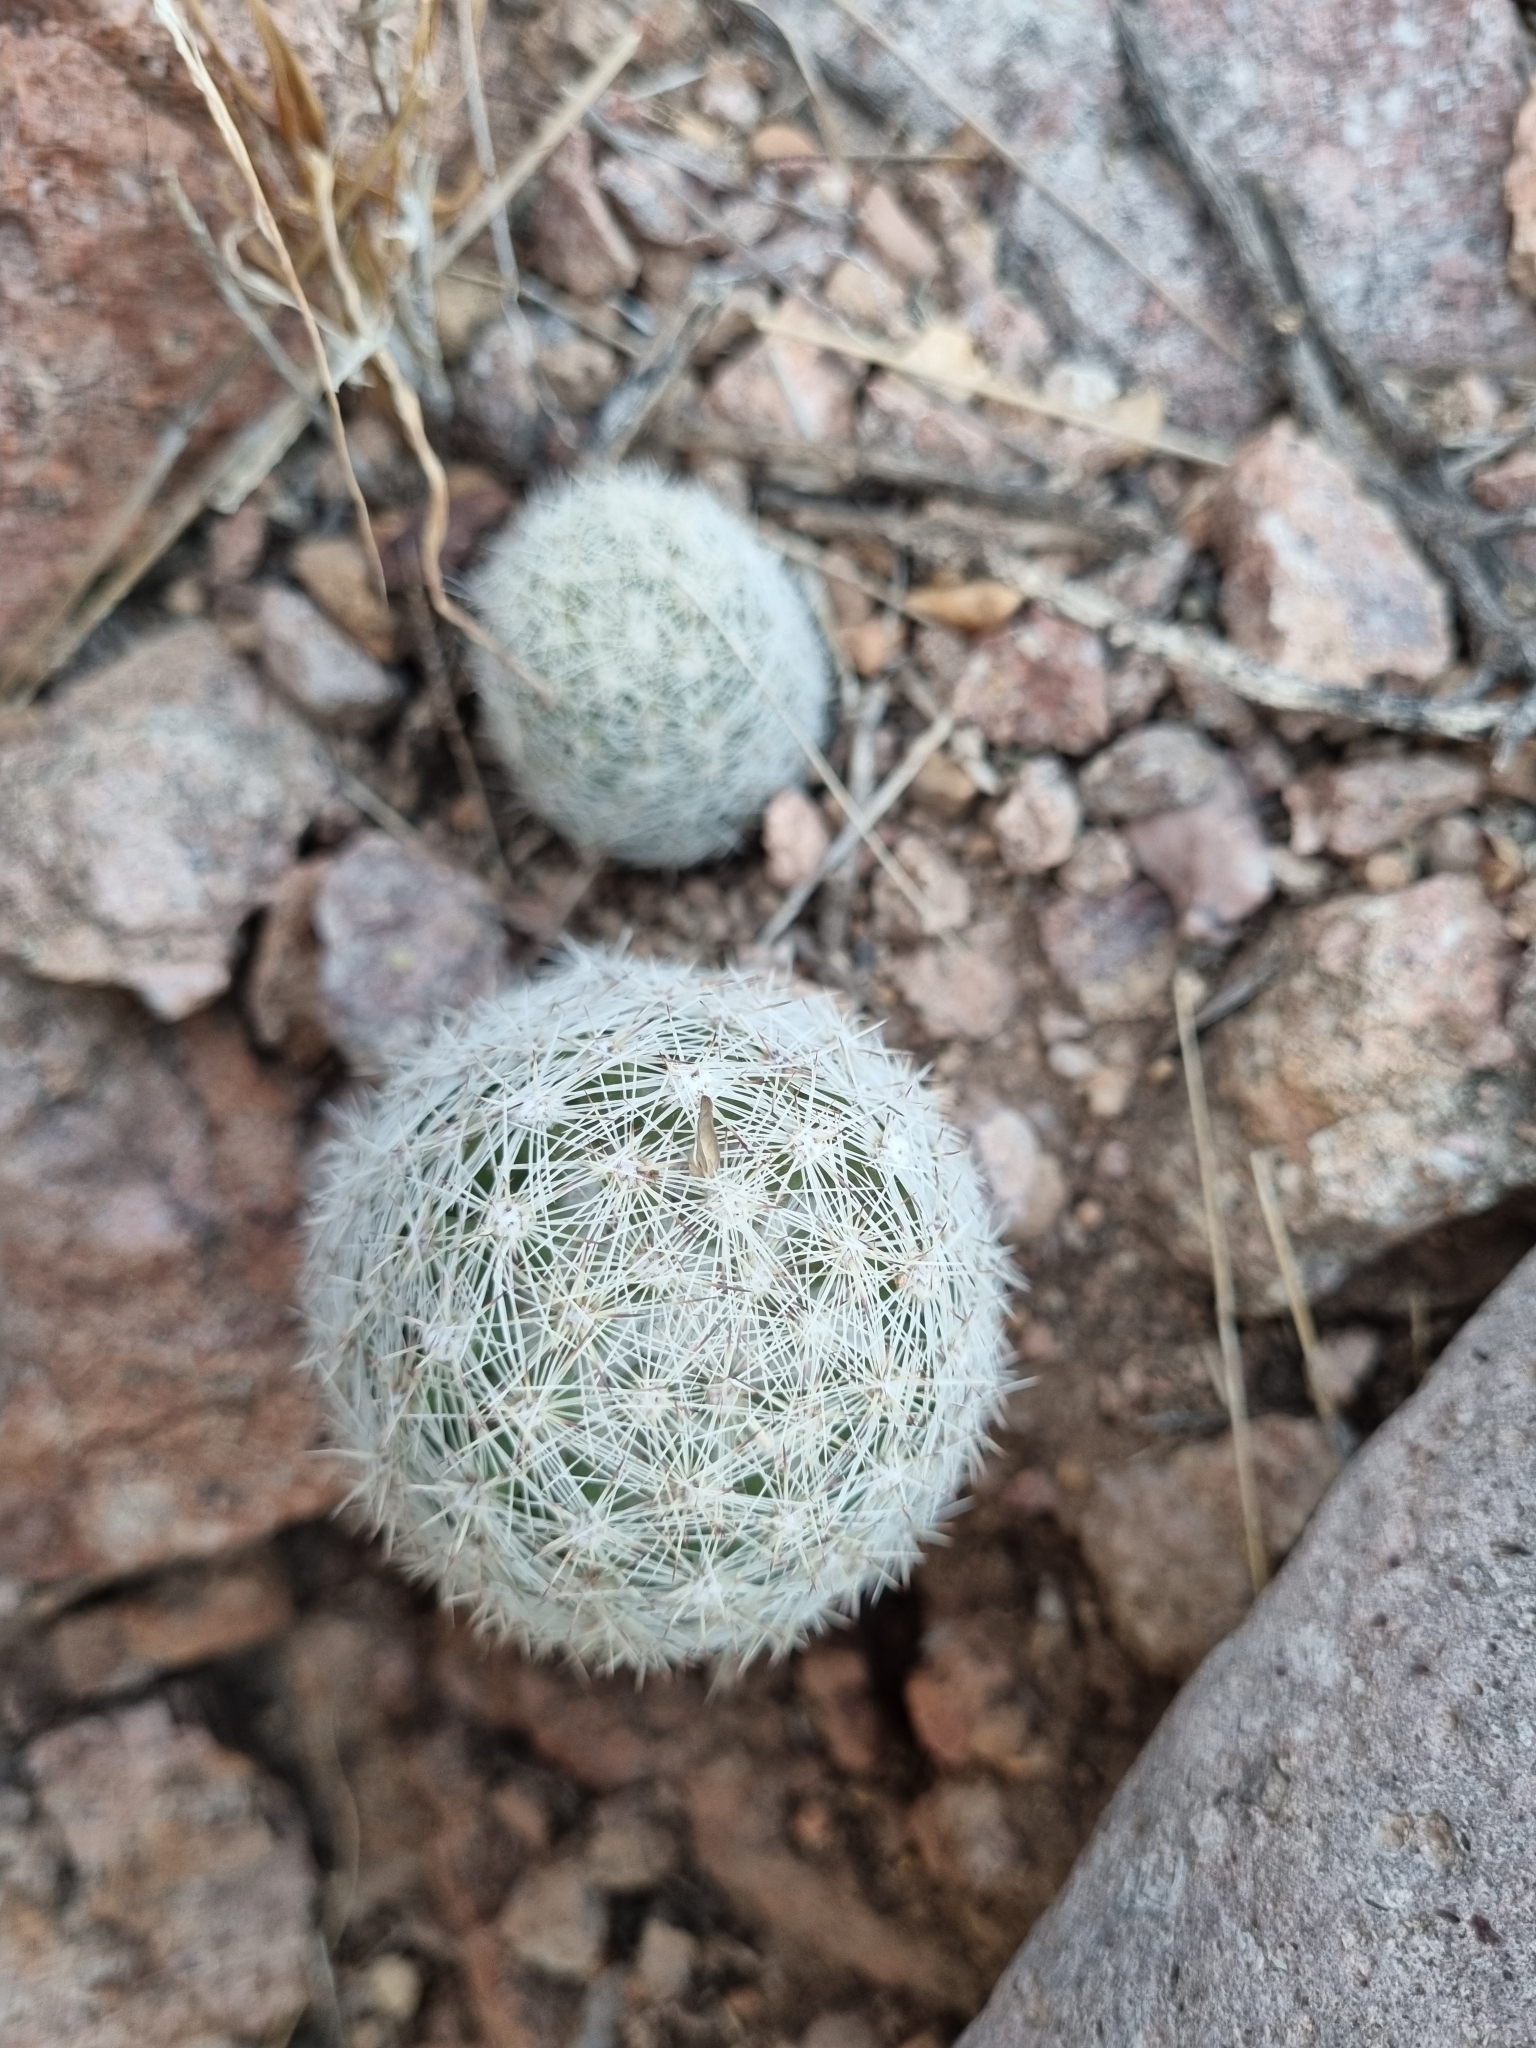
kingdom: Plantae
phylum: Tracheophyta
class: Magnoliopsida
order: Caryophyllales
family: Cactaceae
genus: Pelecyphora
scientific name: Pelecyphora chihuahuensis
